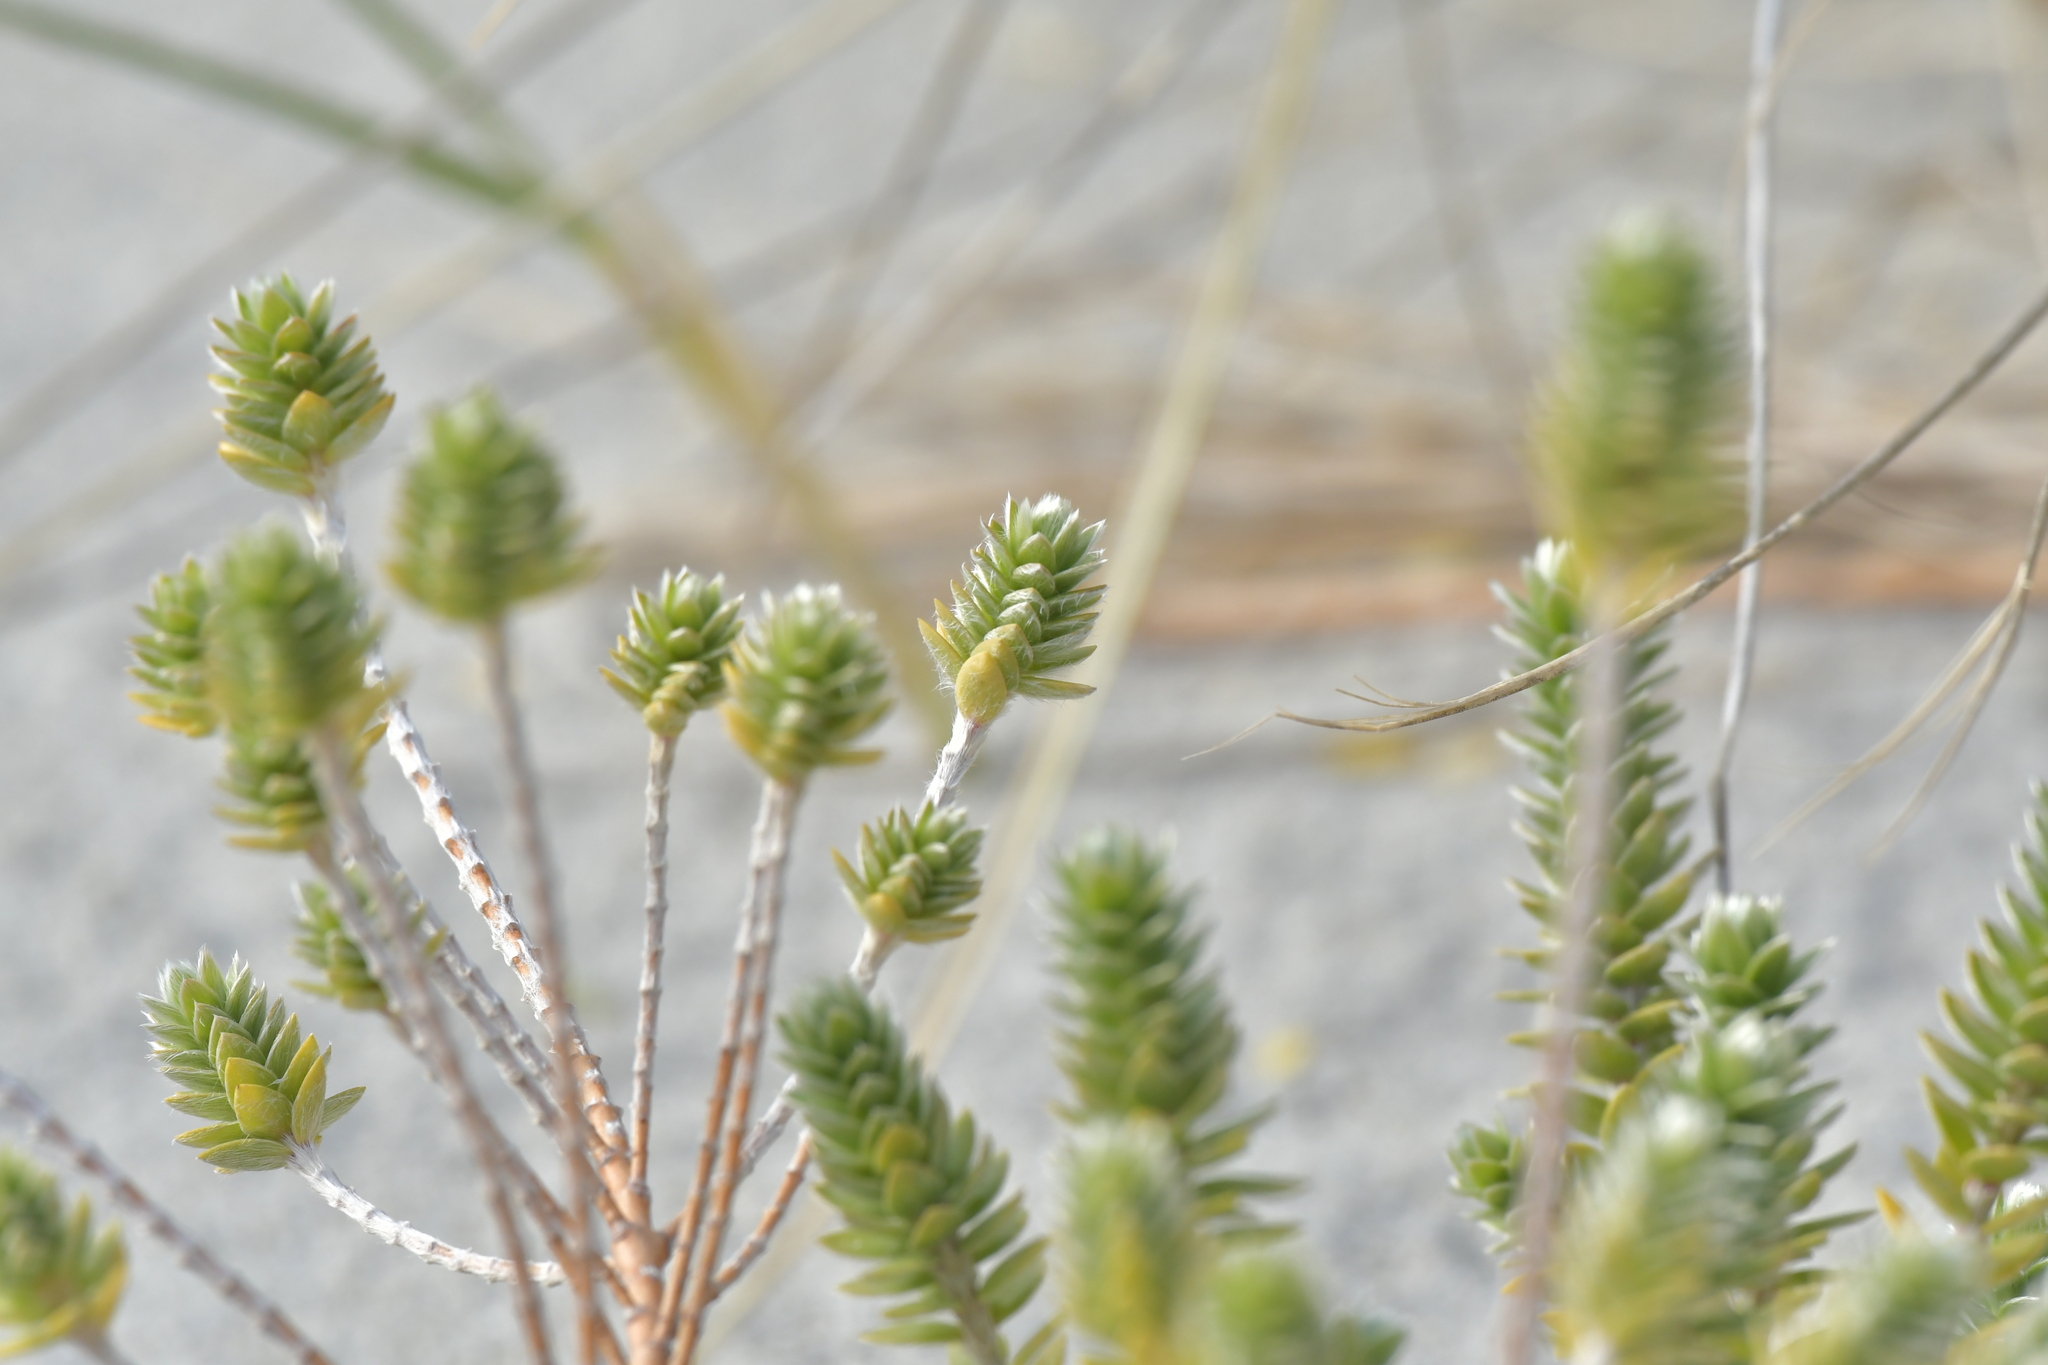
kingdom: Plantae
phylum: Tracheophyta
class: Magnoliopsida
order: Malvales
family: Thymelaeaceae
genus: Pimelea
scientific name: Pimelea villosa
